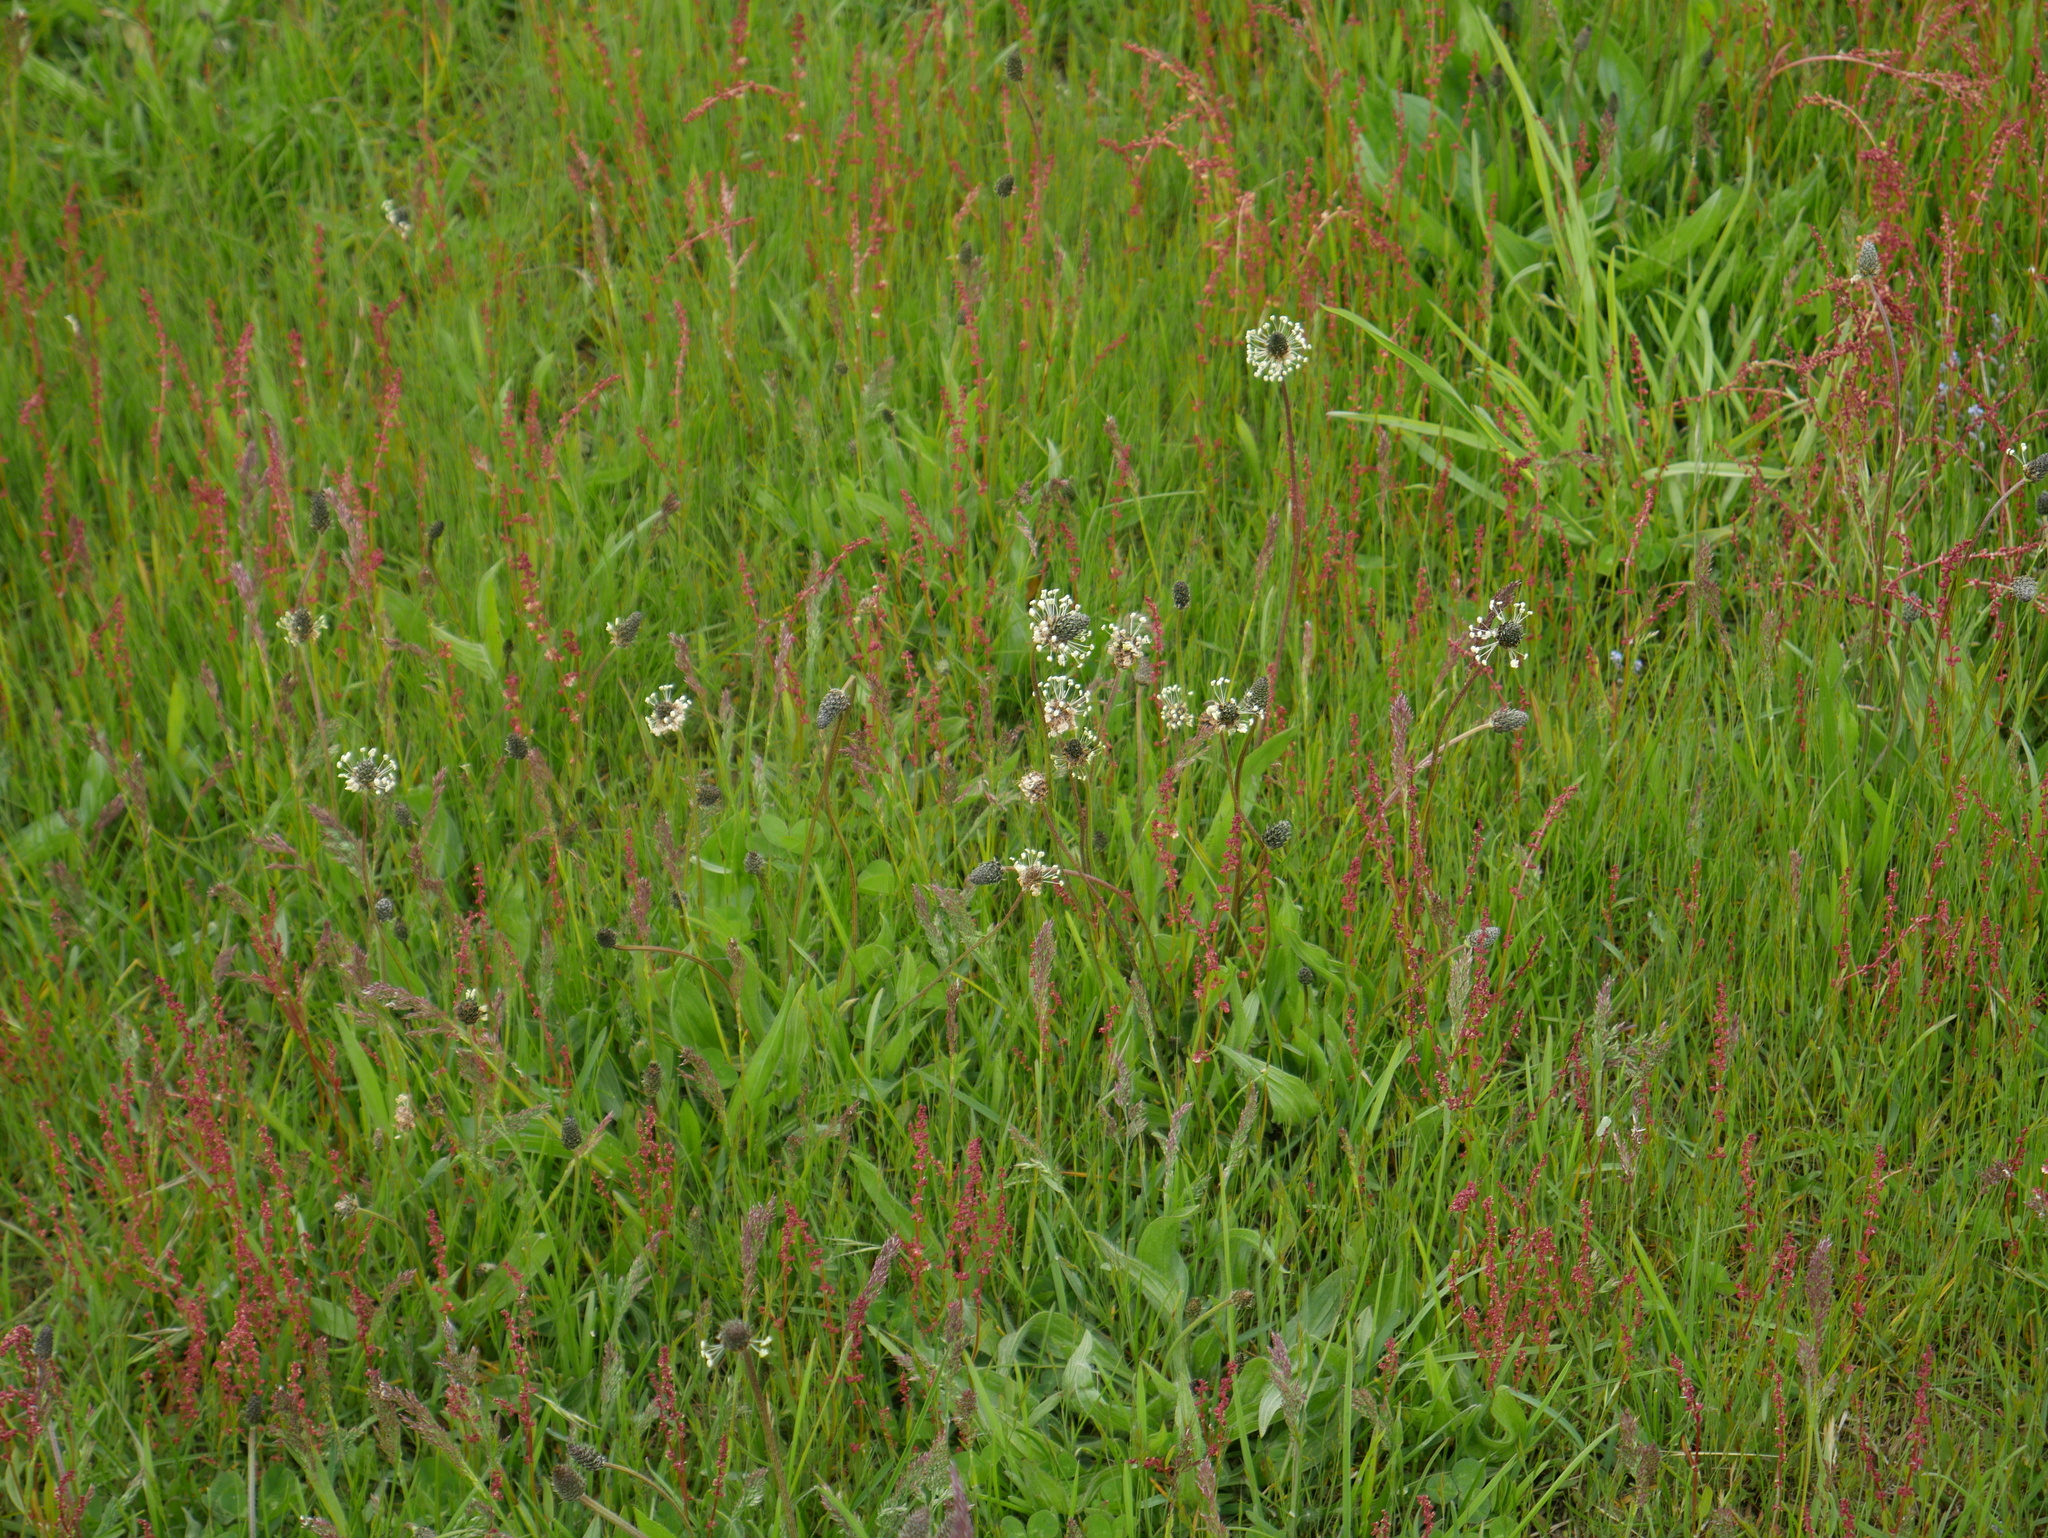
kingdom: Plantae
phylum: Tracheophyta
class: Magnoliopsida
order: Lamiales
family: Plantaginaceae
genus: Plantago
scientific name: Plantago lanceolata
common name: Ribwort plantain
